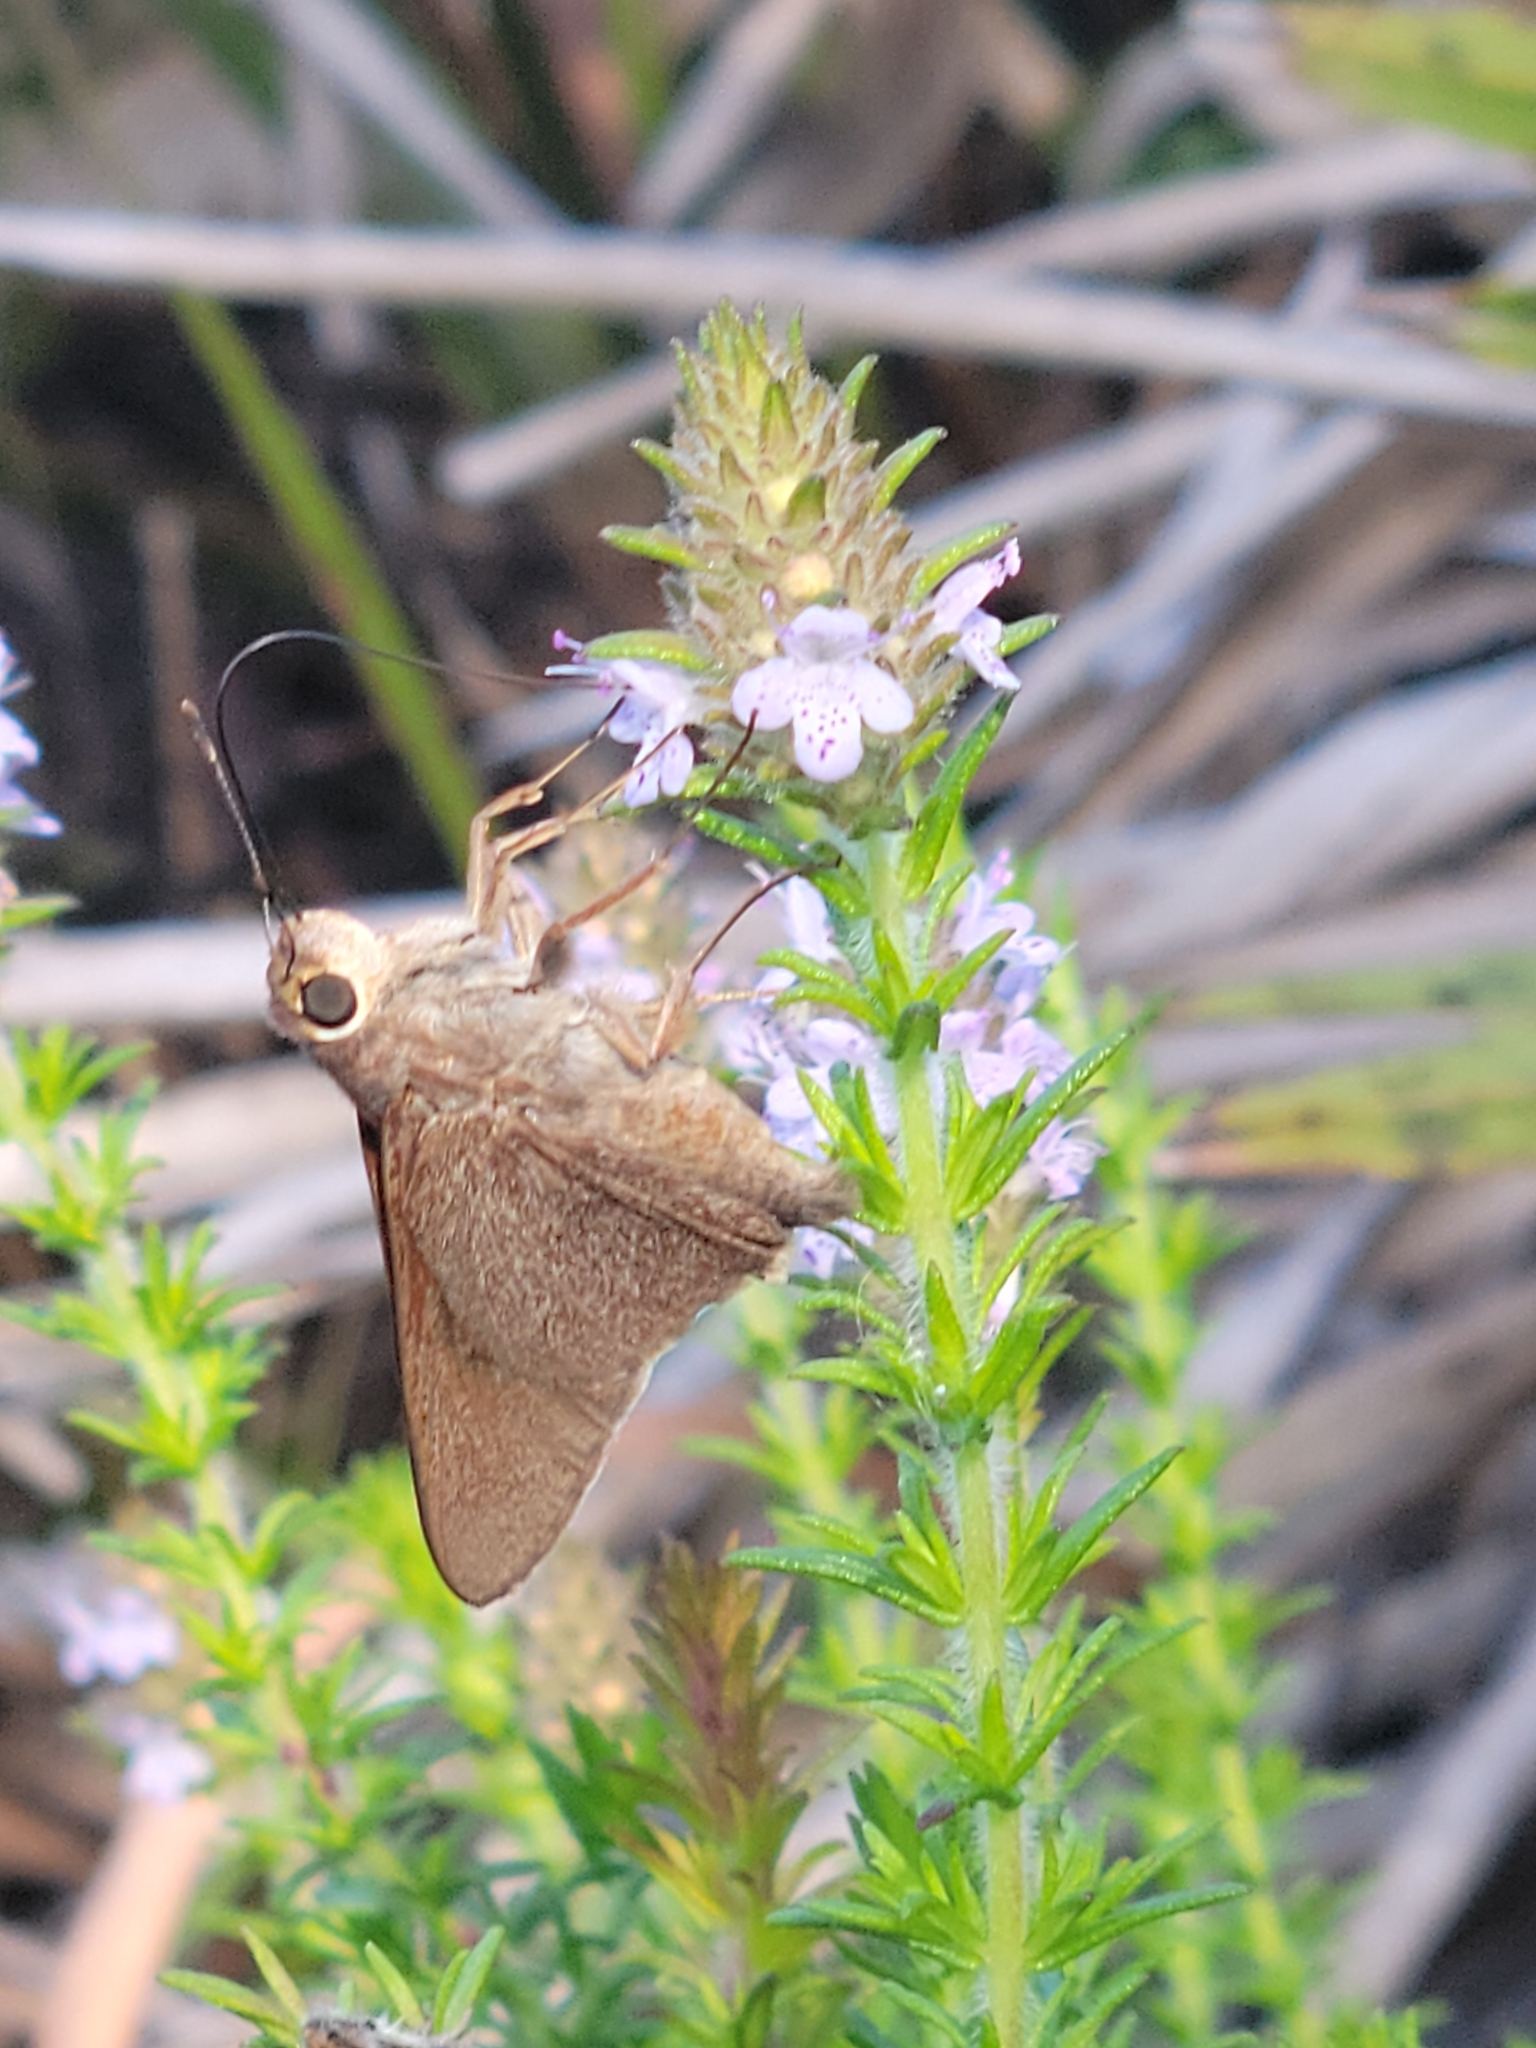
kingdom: Animalia
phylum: Arthropoda
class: Insecta
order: Lepidoptera
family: Hesperiidae
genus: Asbolis
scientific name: Asbolis capucinus
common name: Monk skipper
